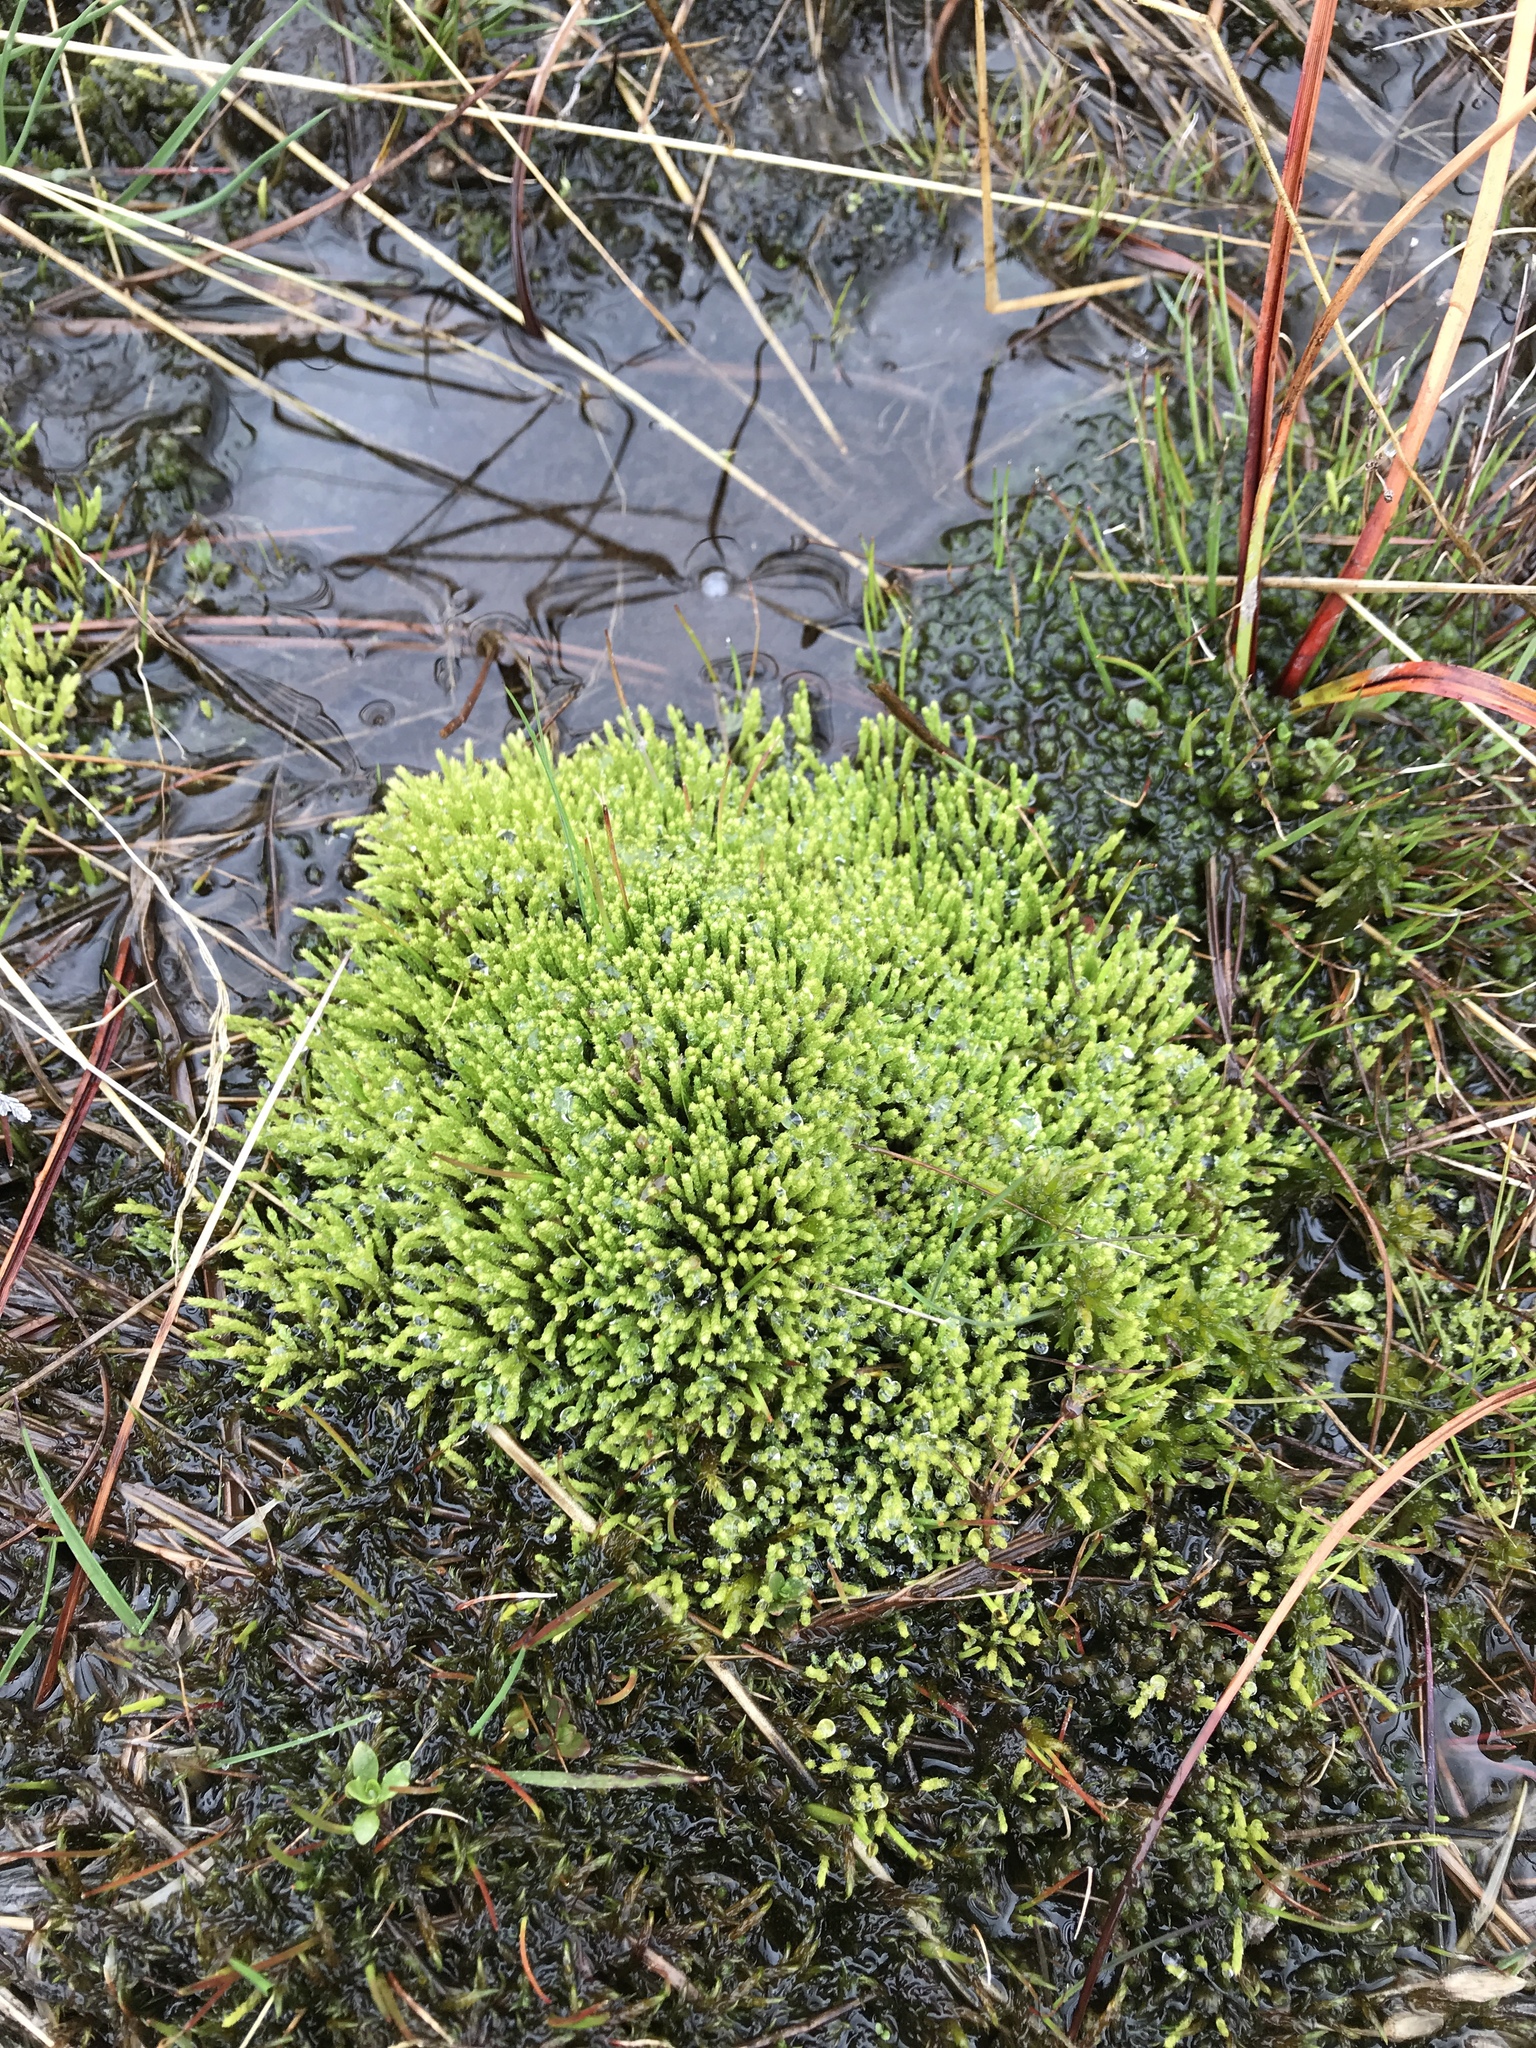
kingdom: Plantae
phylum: Bryophyta
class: Bryopsida
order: Bartramiales
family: Bartramiaceae
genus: Philonotis
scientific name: Philonotis fontana
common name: Fountain apple-moss
